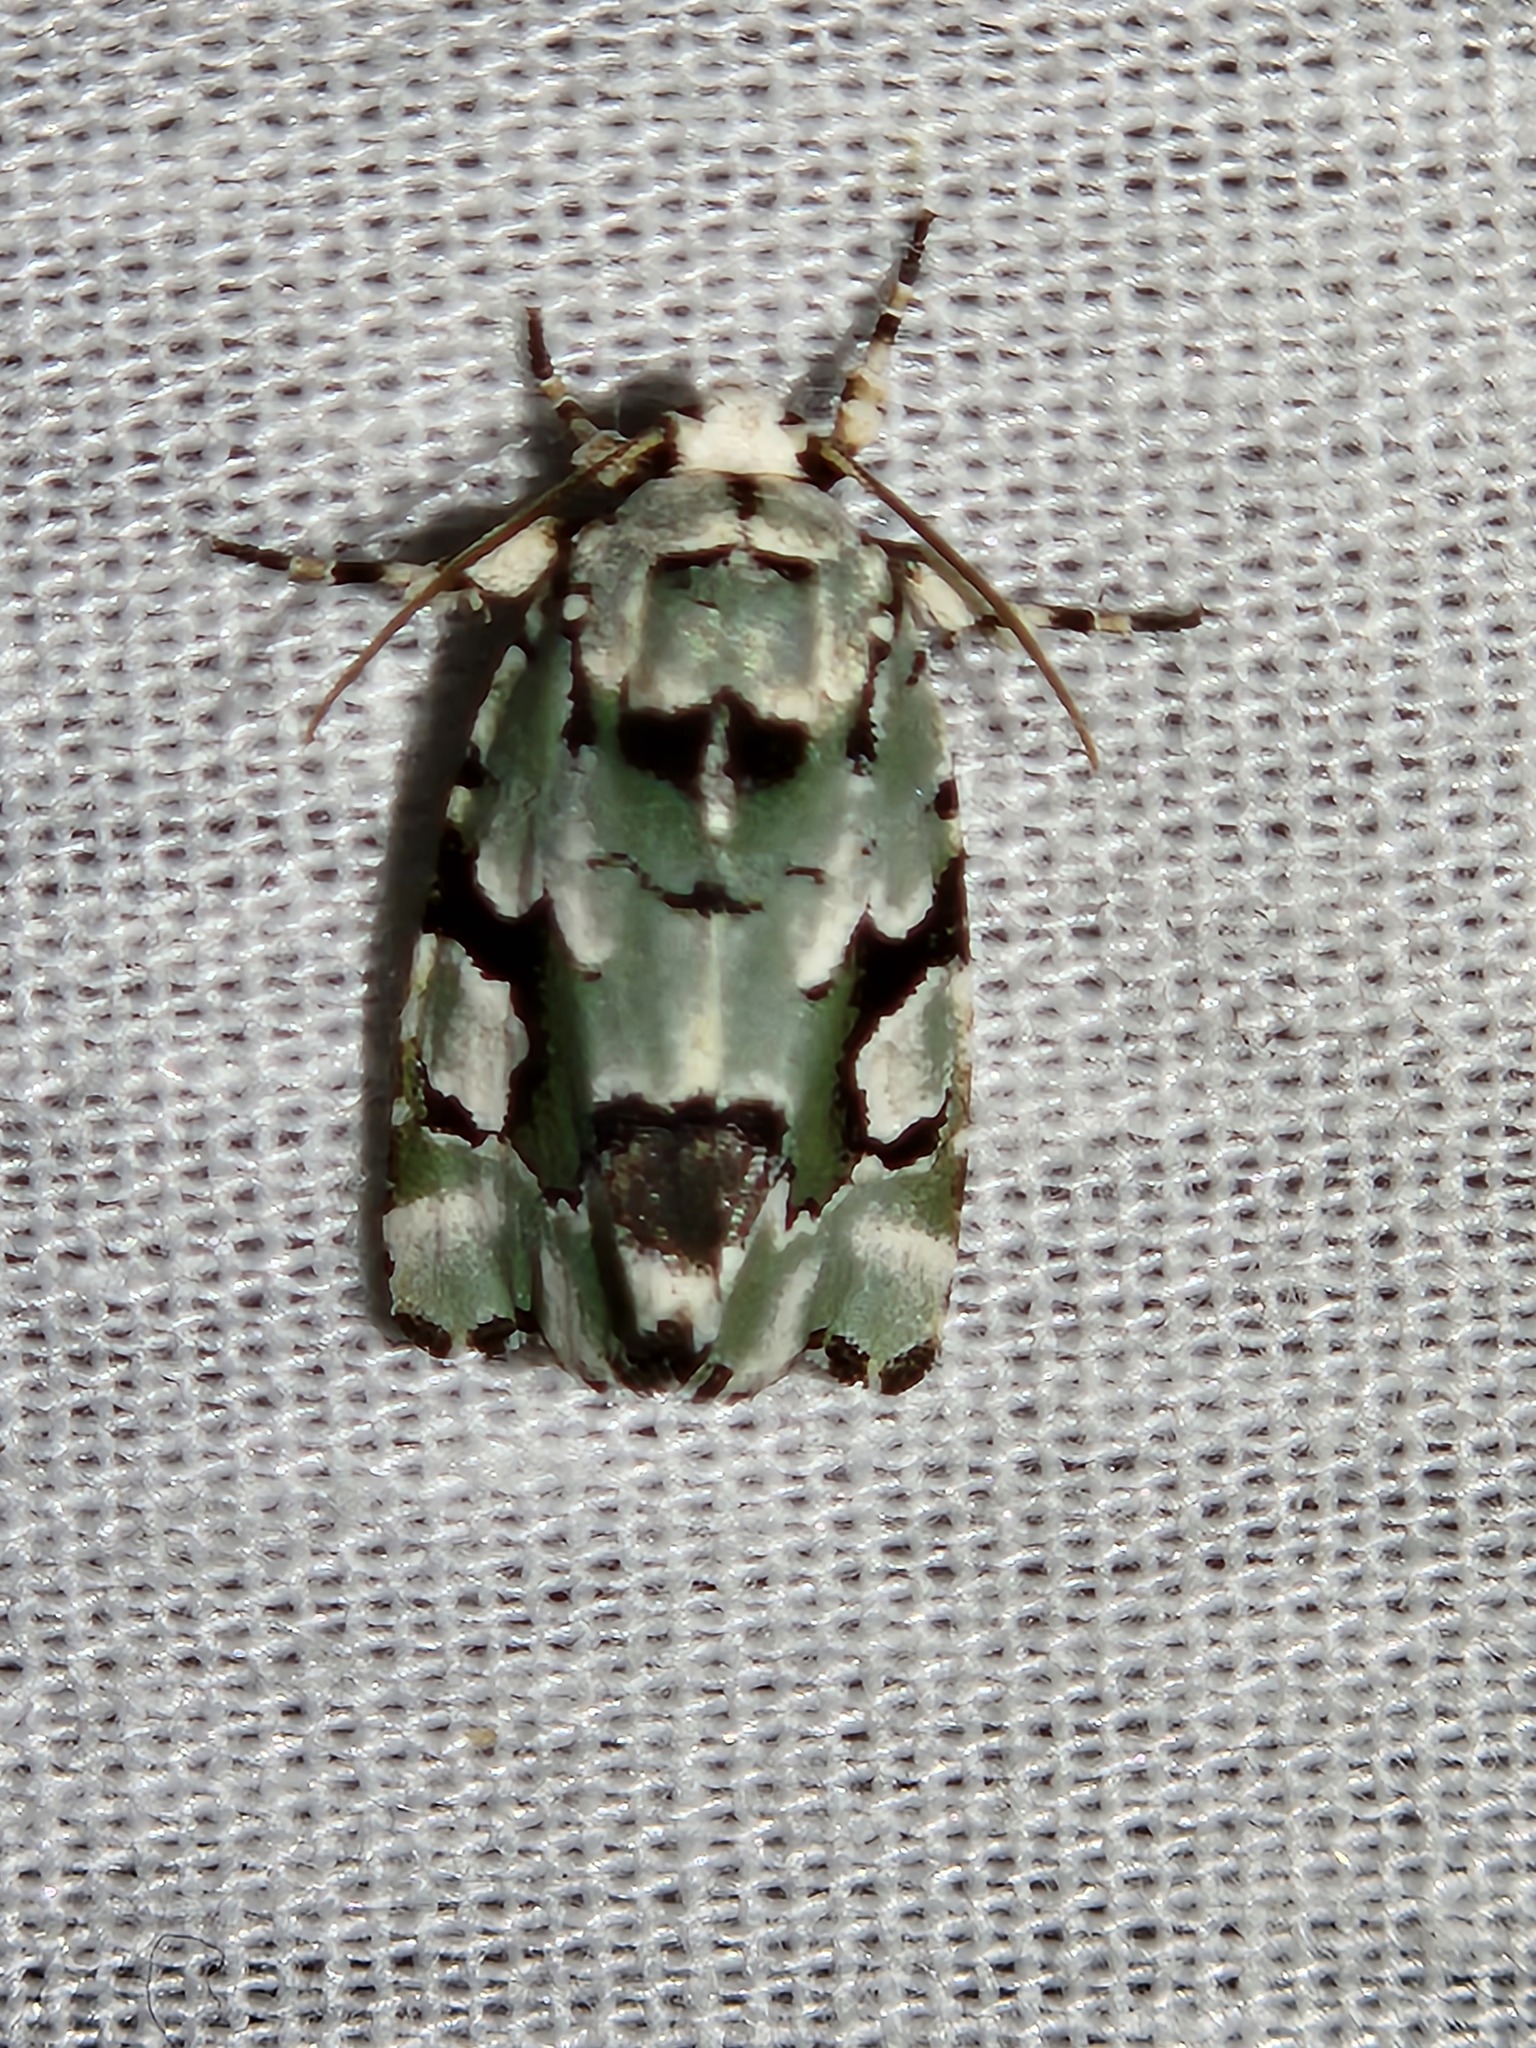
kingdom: Animalia
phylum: Arthropoda
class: Insecta
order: Lepidoptera
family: Noctuidae
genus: Emarginea
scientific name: Emarginea percara
